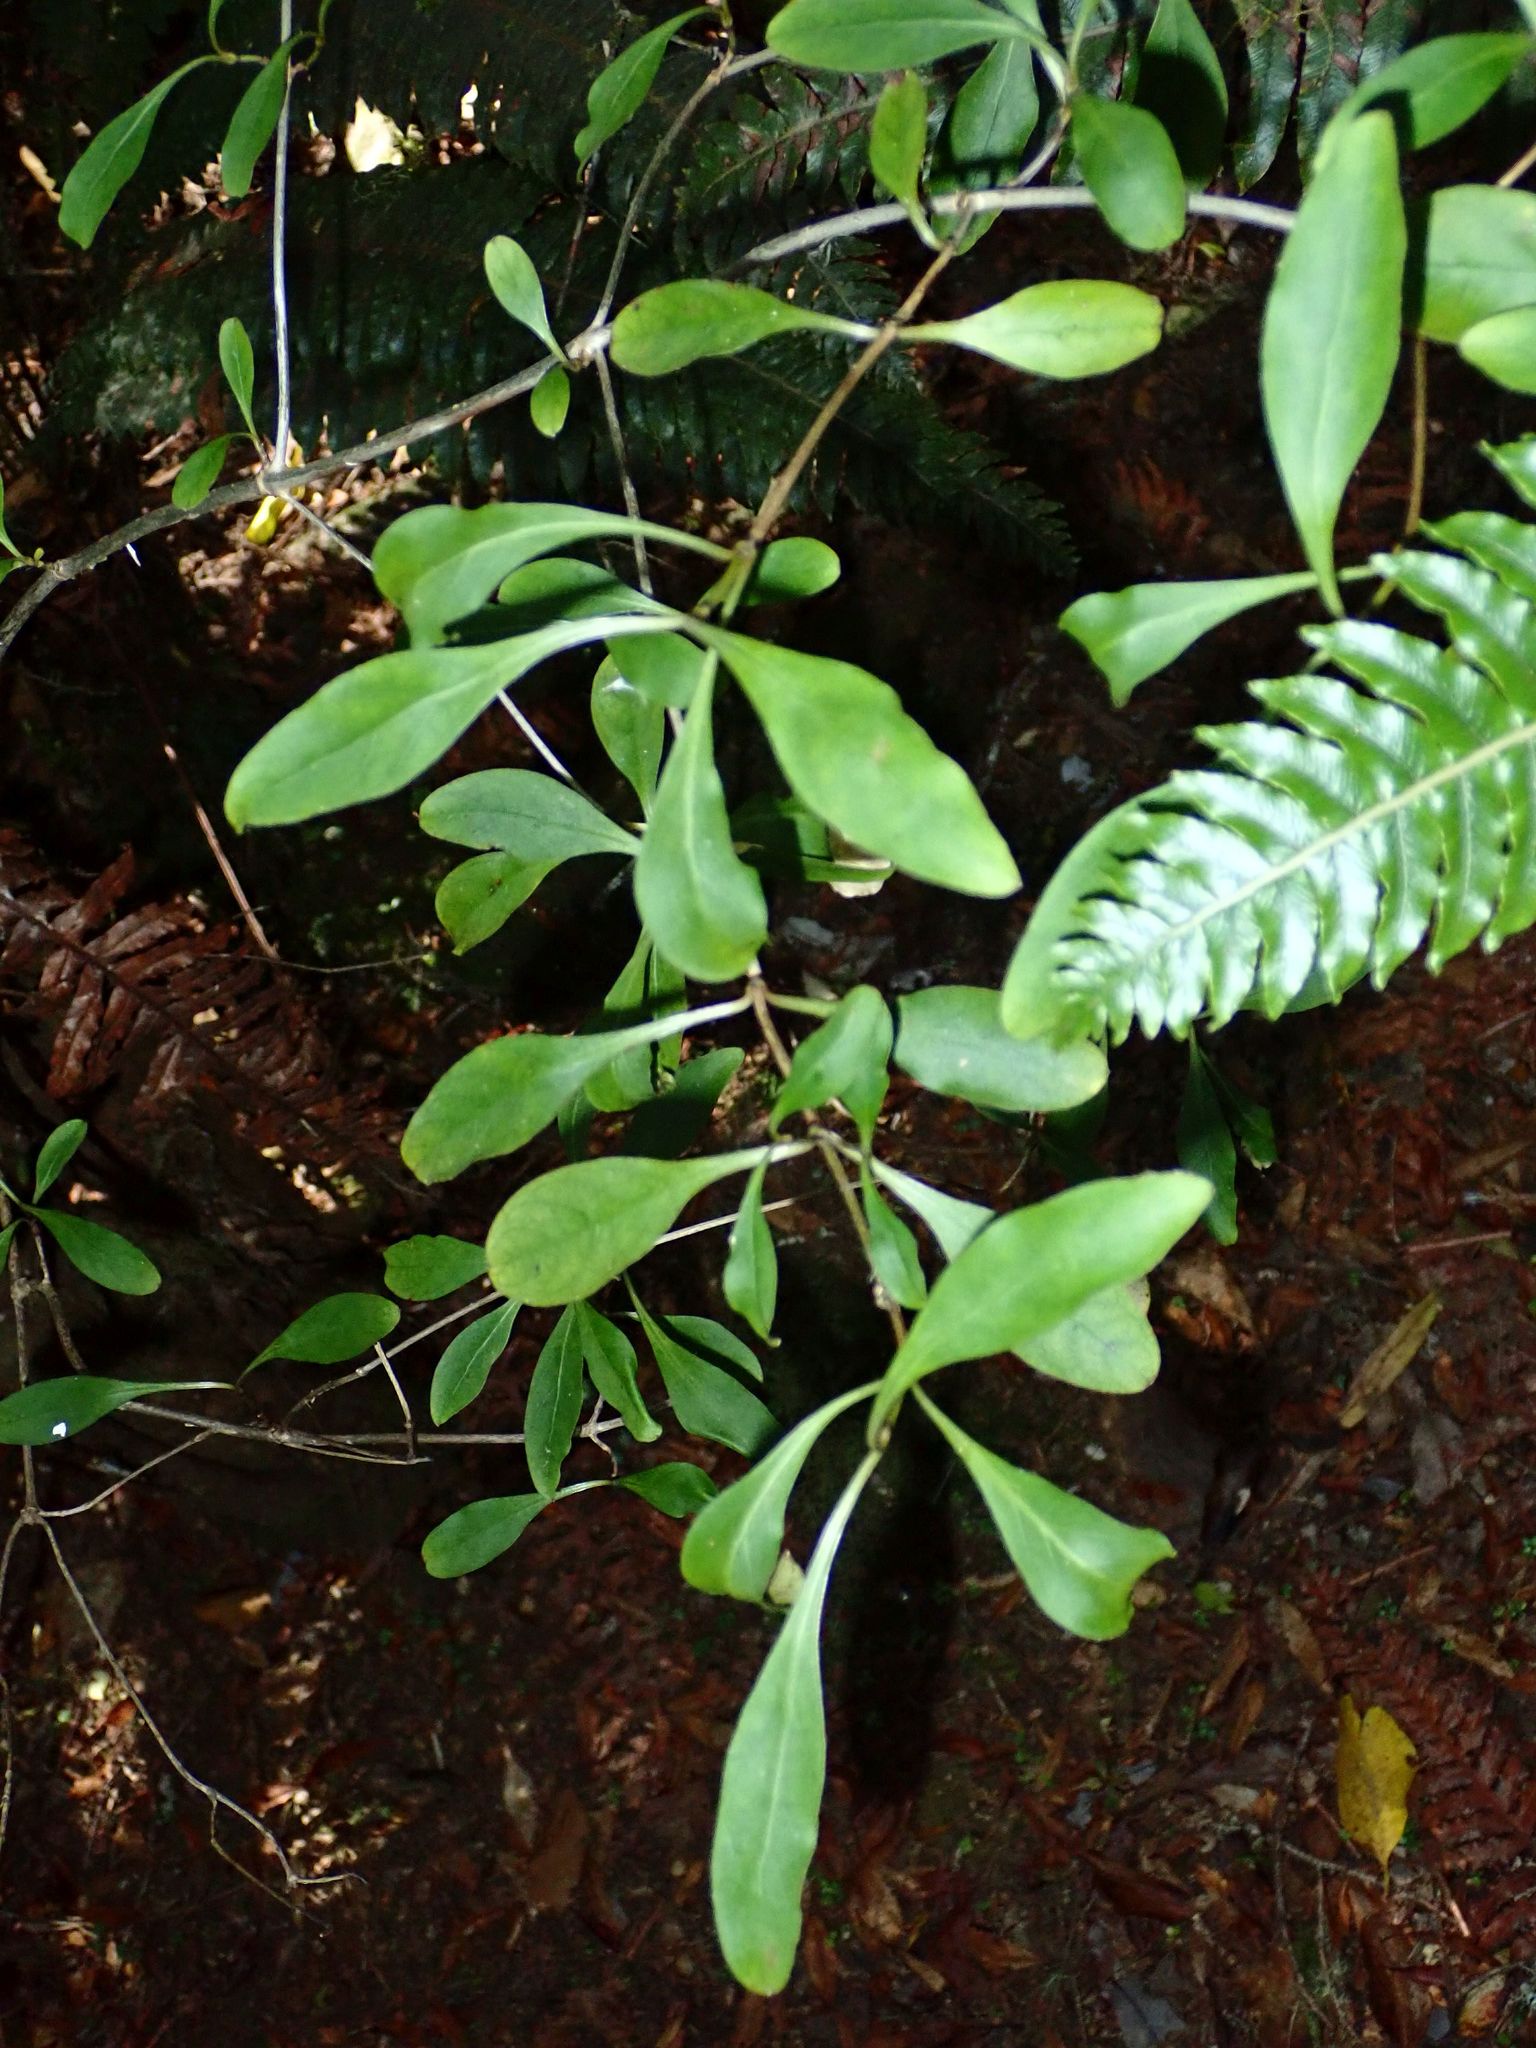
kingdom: Plantae
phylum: Tracheophyta
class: Magnoliopsida
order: Gentianales
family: Rubiaceae
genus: Coprosma
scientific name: Coprosma foetidissima
